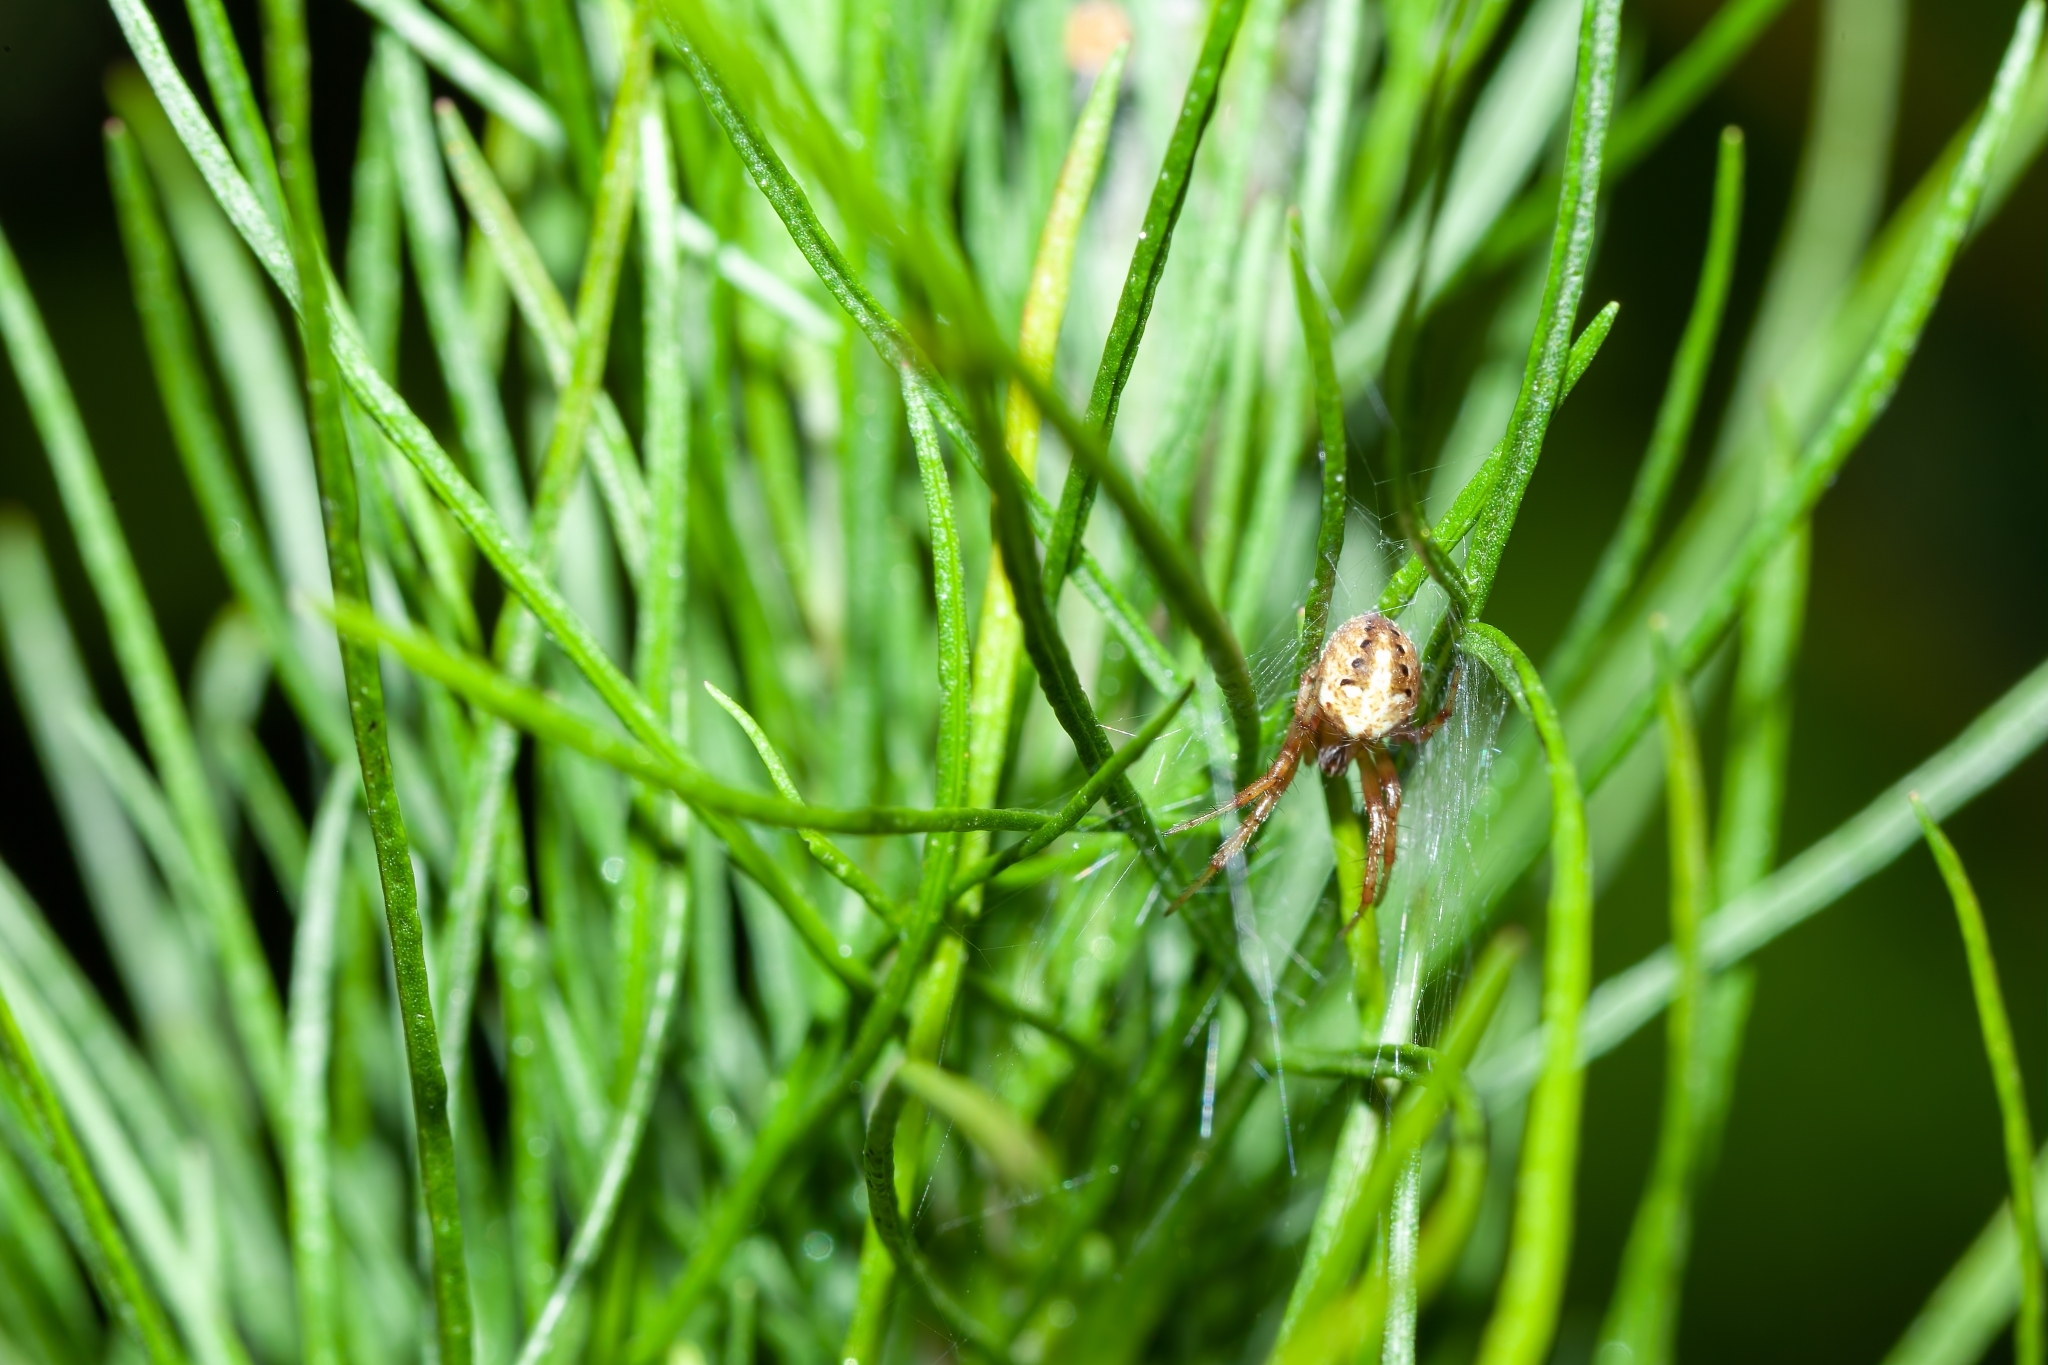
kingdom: Animalia
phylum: Arthropoda
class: Arachnida
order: Araneae
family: Araneidae
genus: Neoscona
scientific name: Neoscona arabesca
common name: Orb weavers
